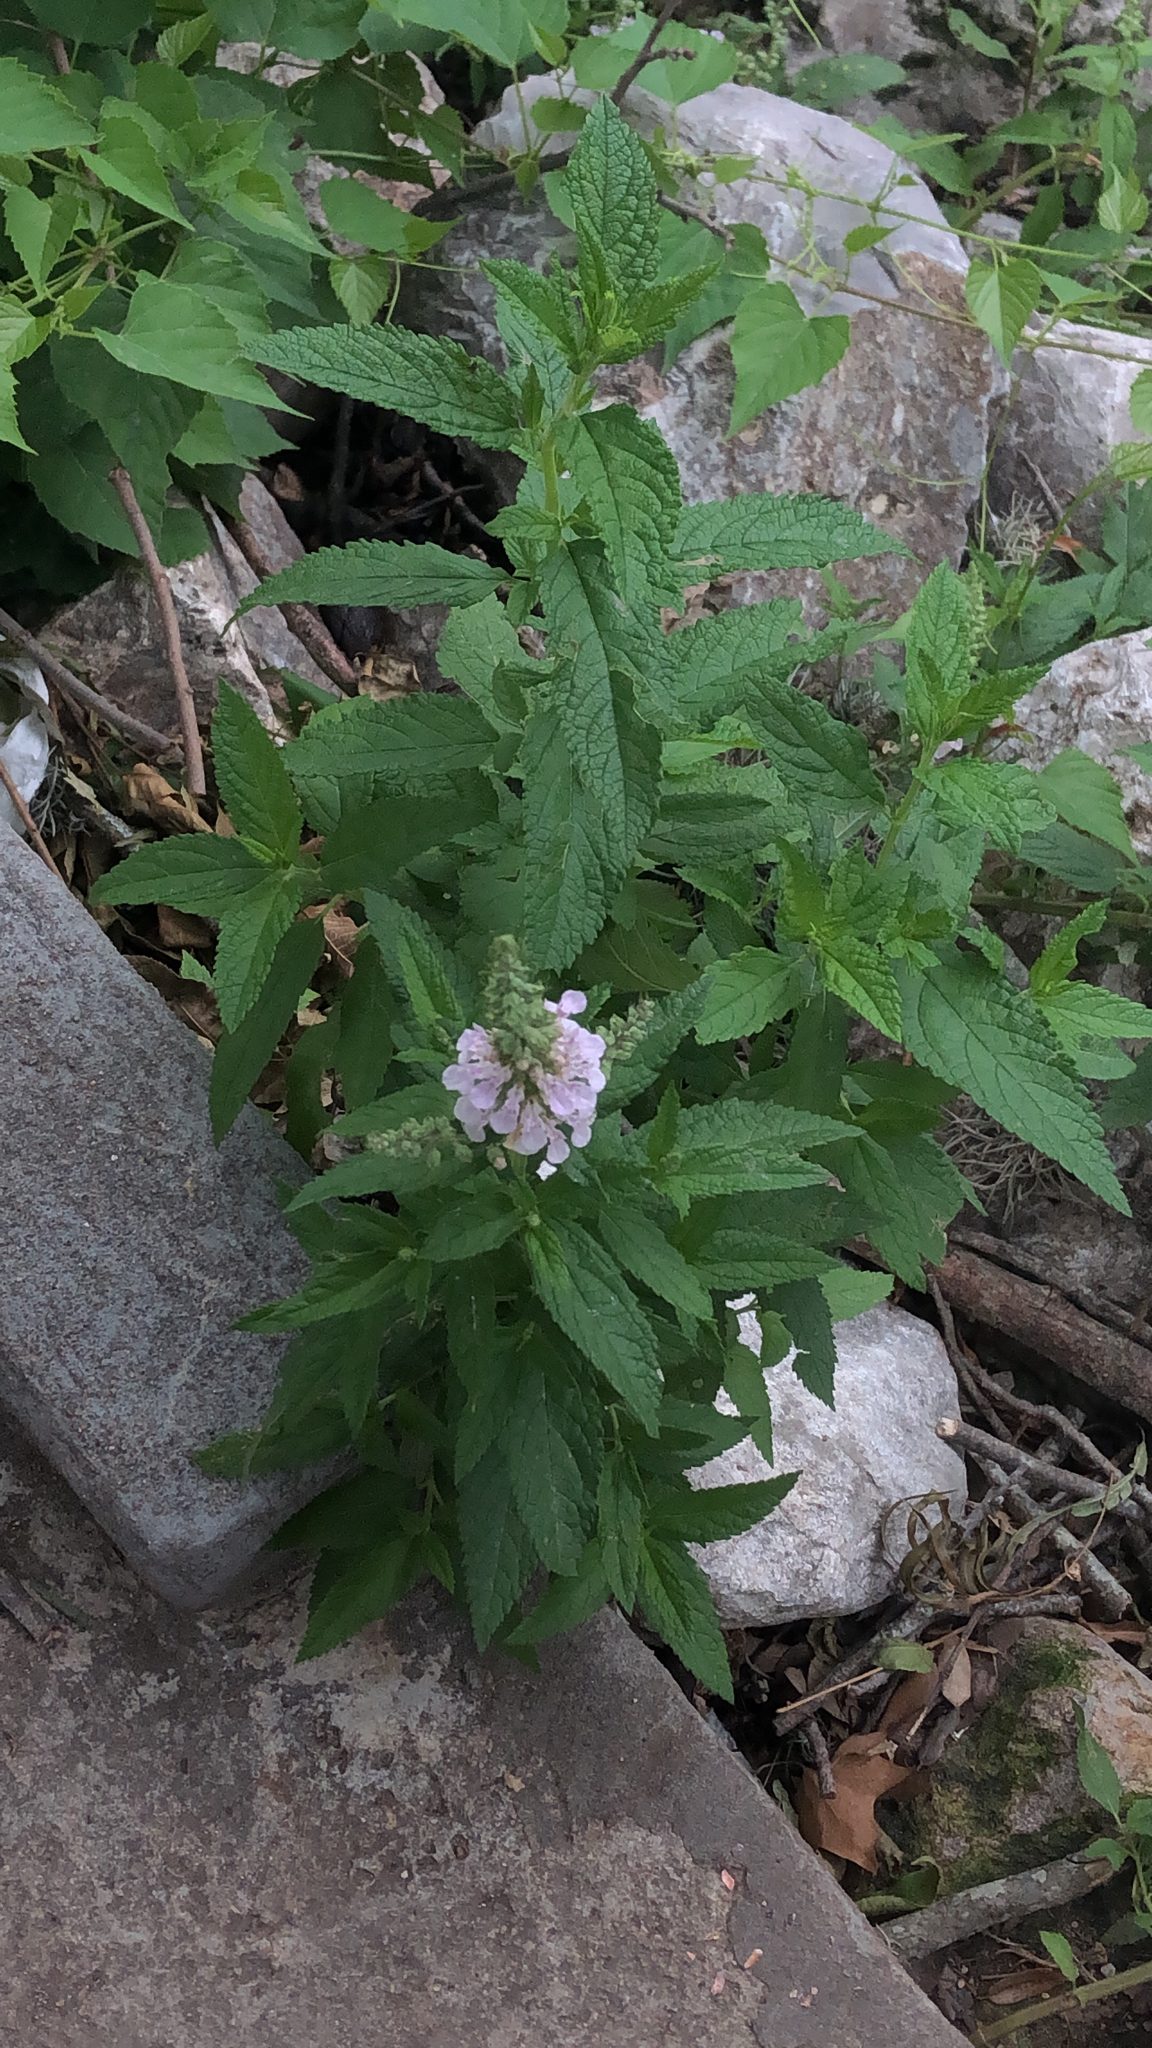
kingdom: Plantae
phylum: Tracheophyta
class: Magnoliopsida
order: Lamiales
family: Lamiaceae
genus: Teucrium
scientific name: Teucrium canadense
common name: American germander
